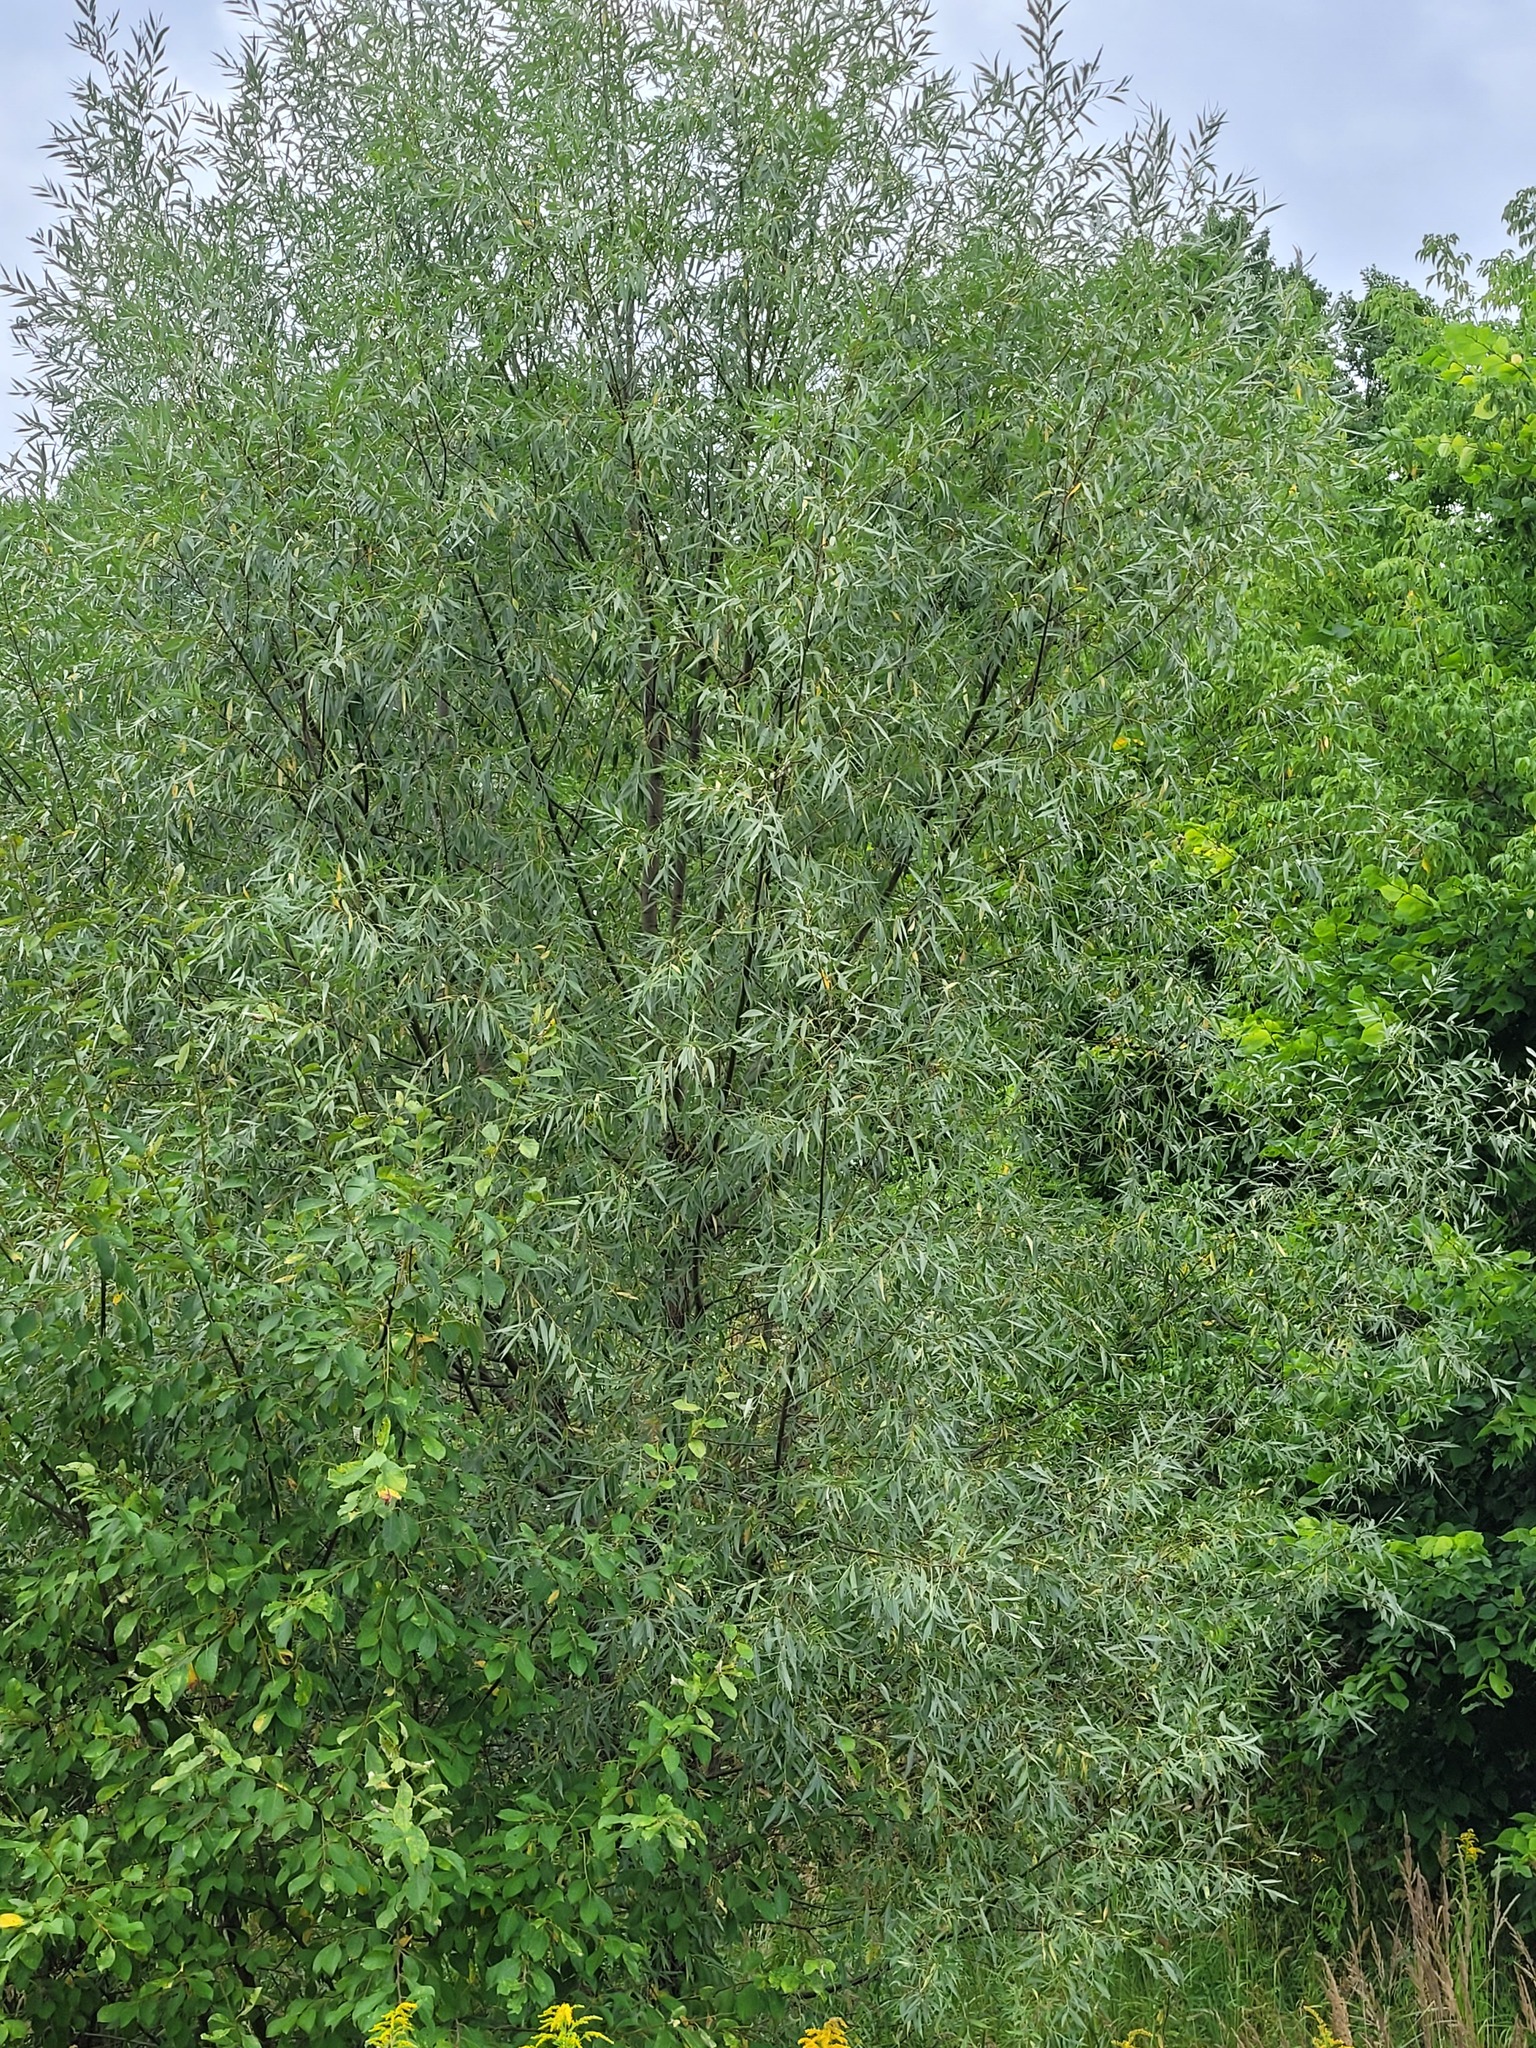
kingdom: Plantae
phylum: Tracheophyta
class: Magnoliopsida
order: Malpighiales
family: Salicaceae
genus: Salix
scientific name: Salix alba
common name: White willow
